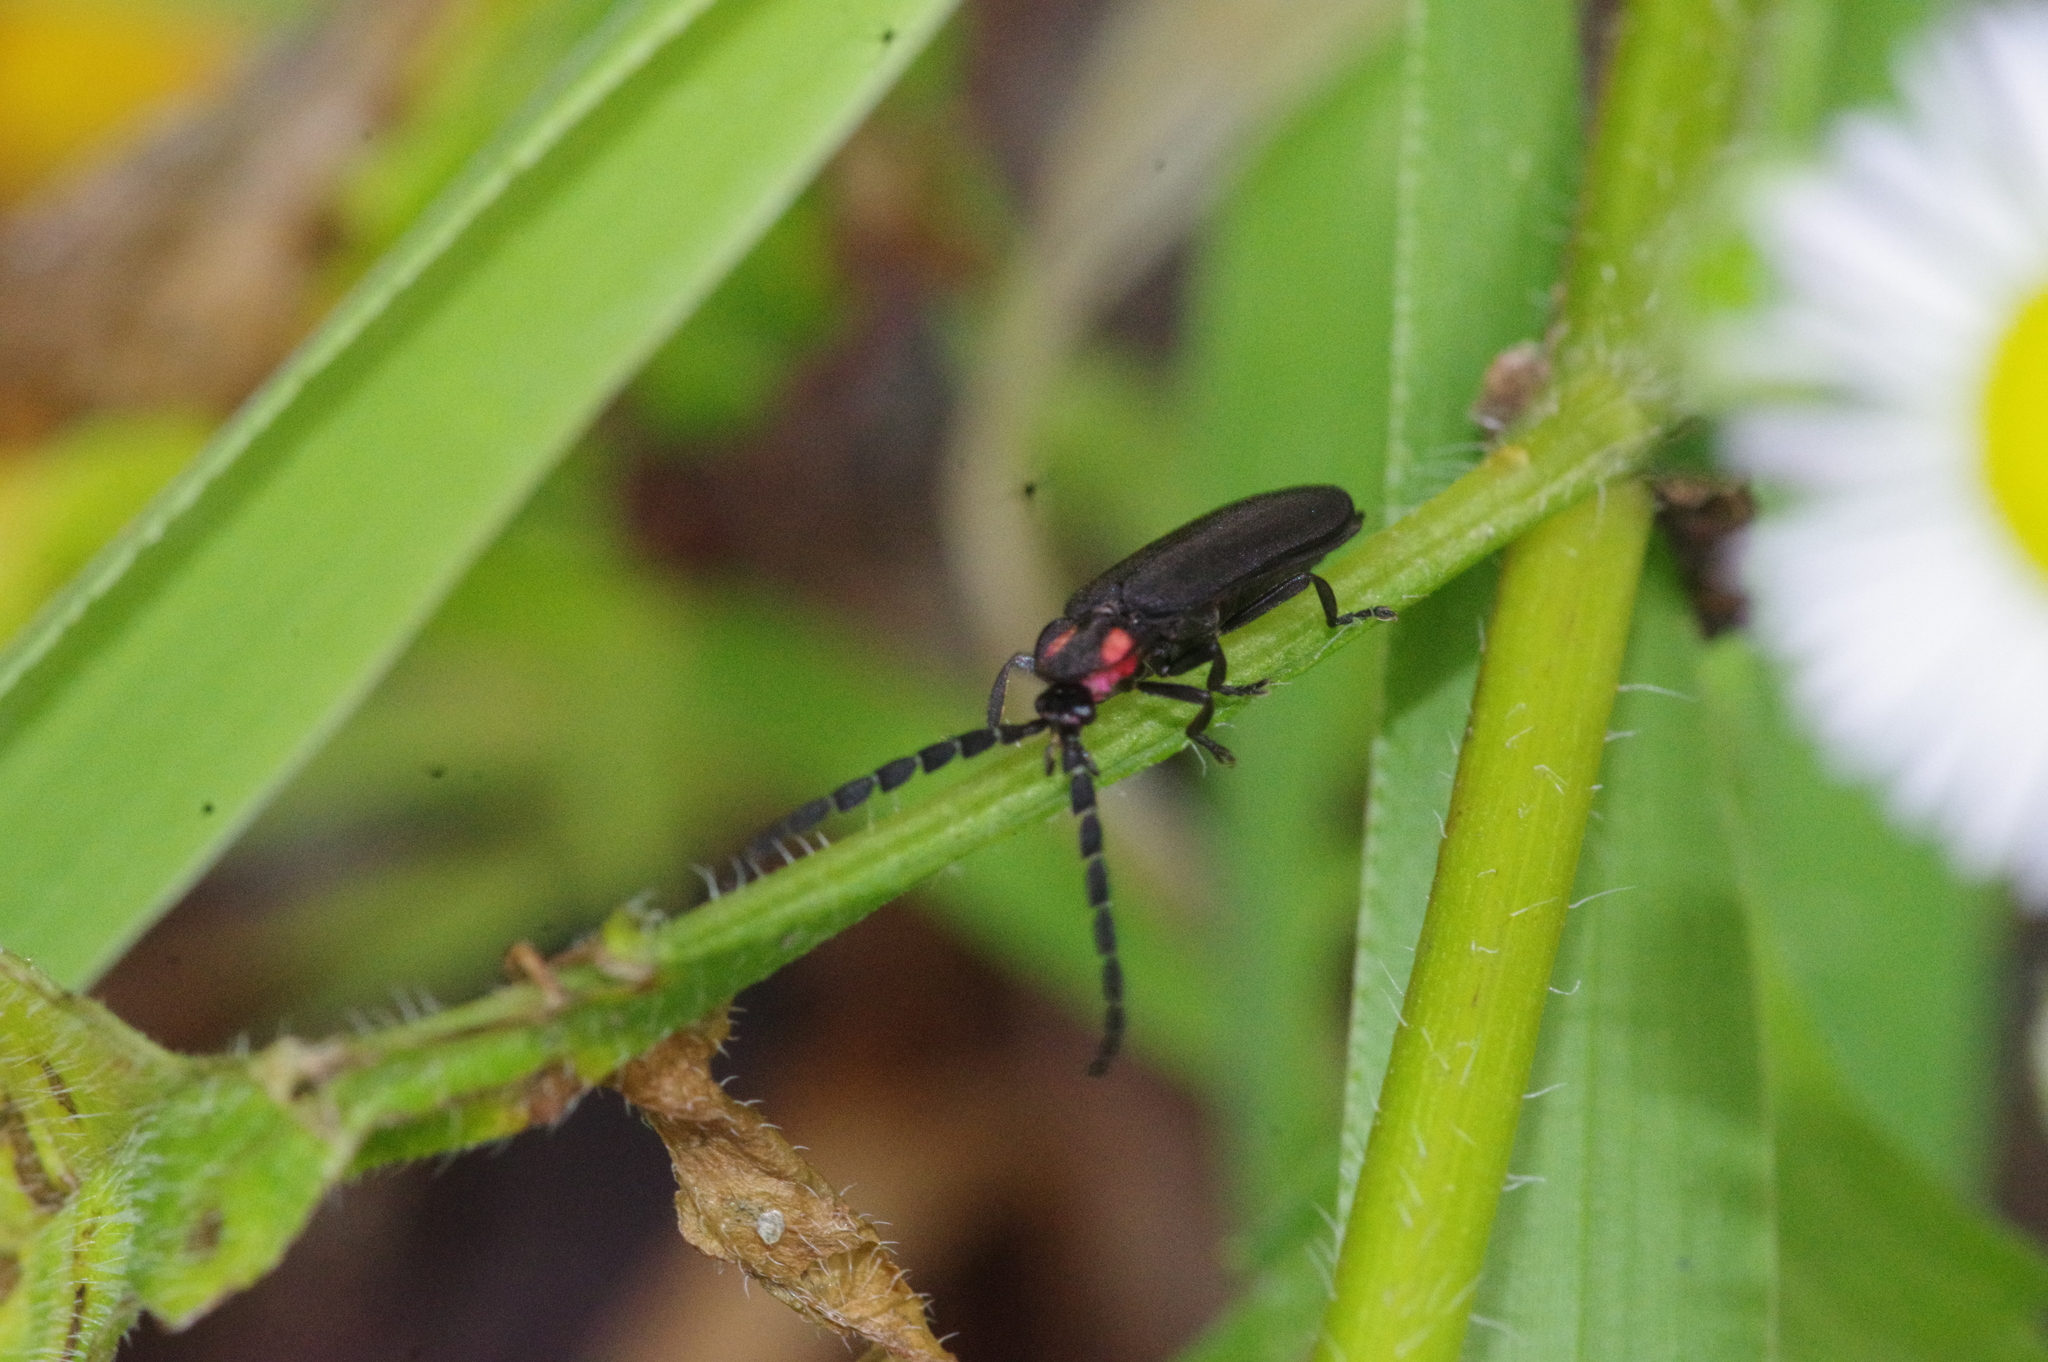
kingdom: Animalia
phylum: Arthropoda
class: Insecta
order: Coleoptera
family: Lampyridae
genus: Lucidina
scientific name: Lucidina biplagiata
